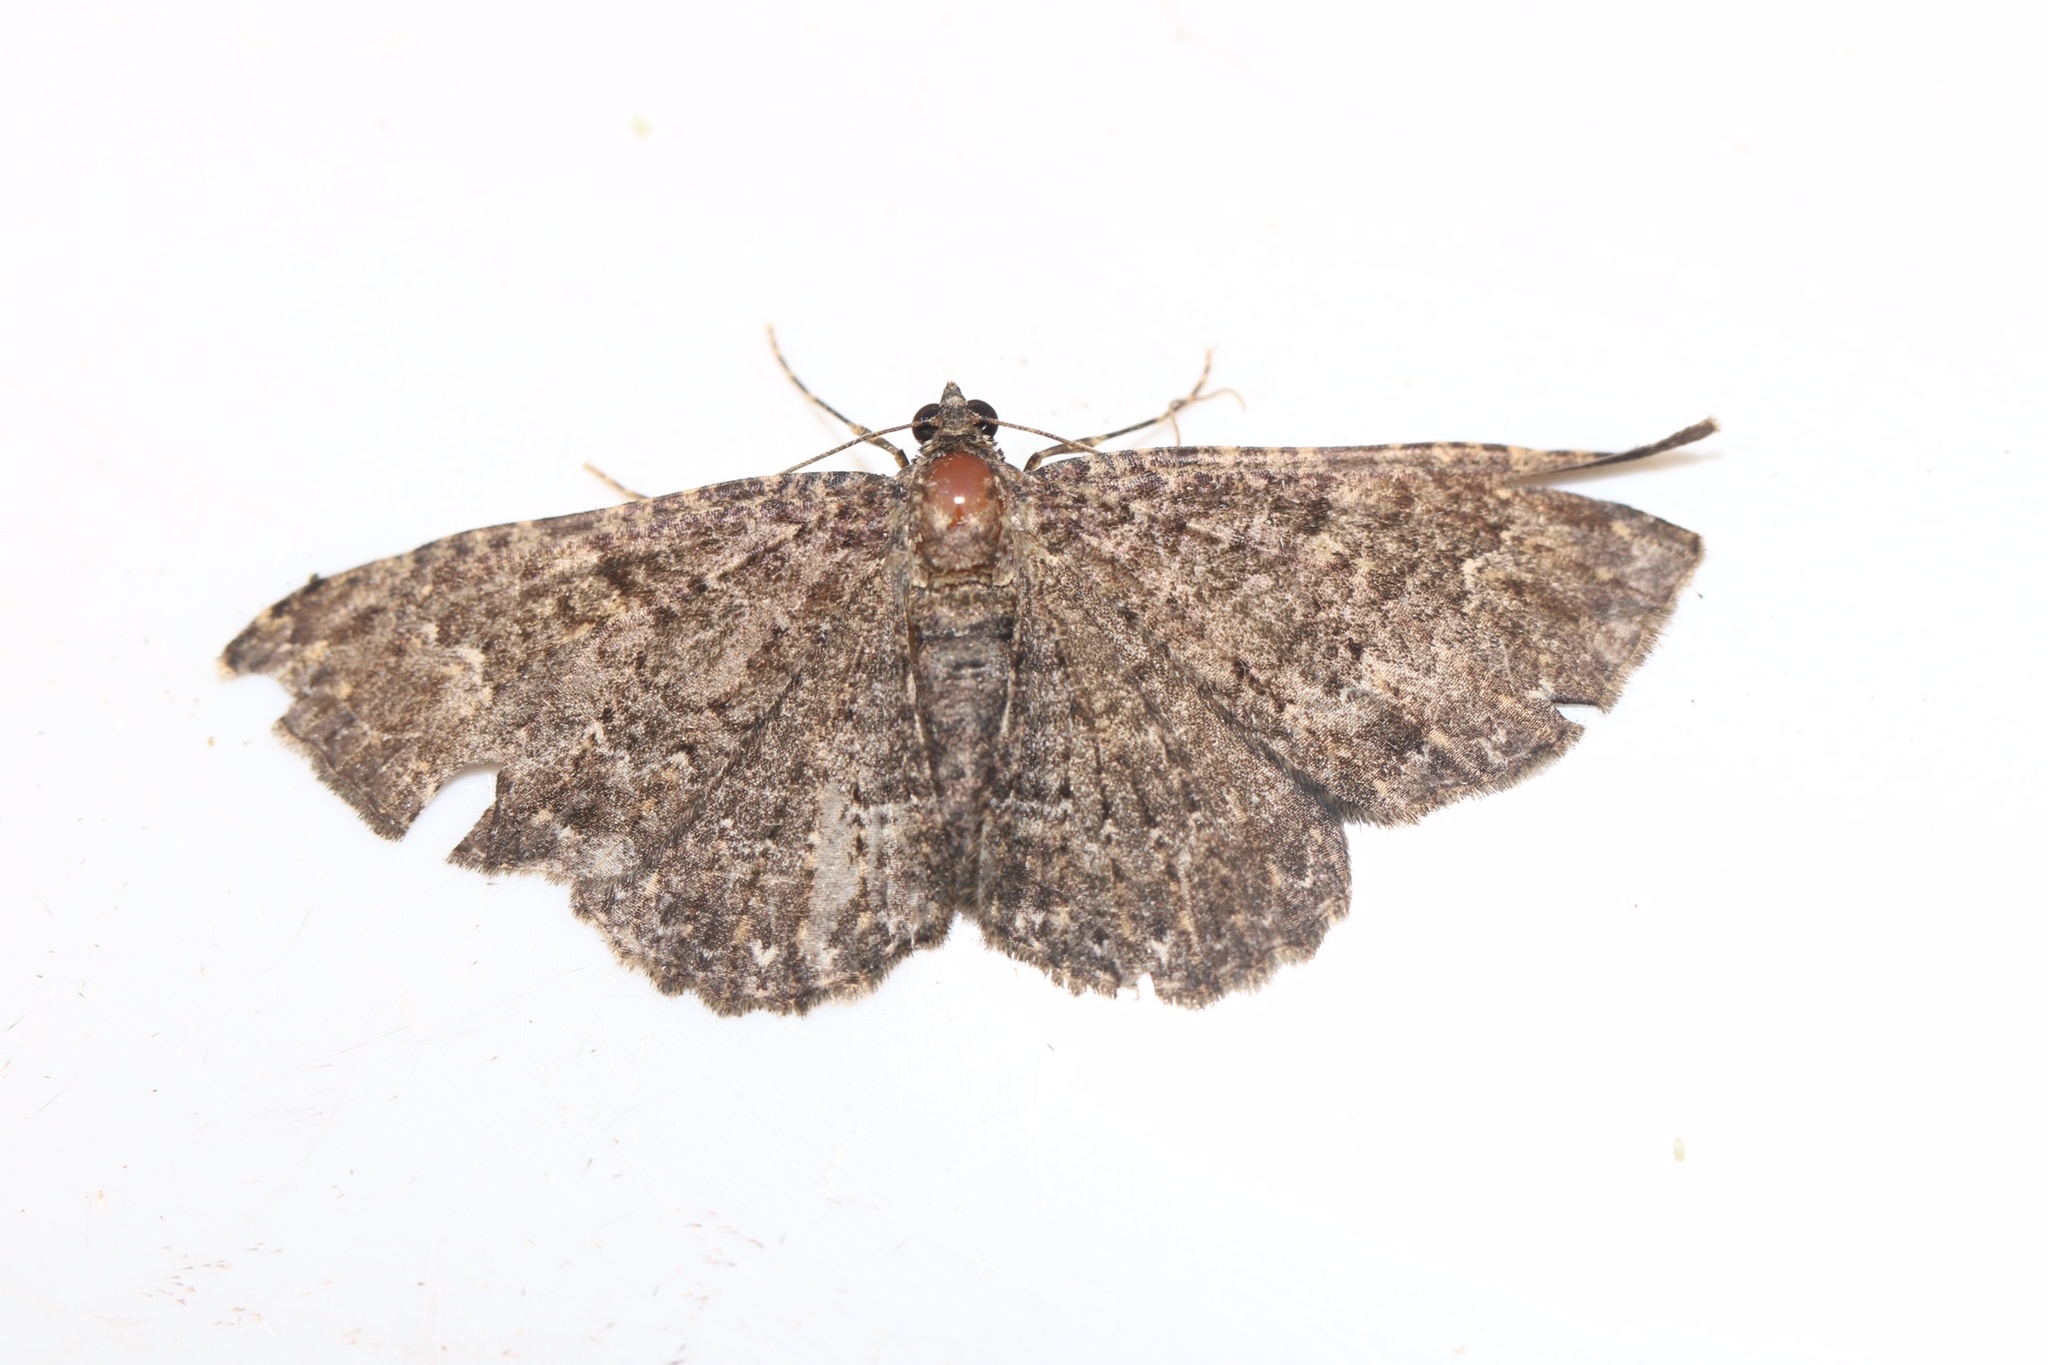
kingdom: Animalia
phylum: Arthropoda
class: Insecta
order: Lepidoptera
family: Geometridae
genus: Disclisioprocta
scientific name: Disclisioprocta stellata
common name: Somber carpet
